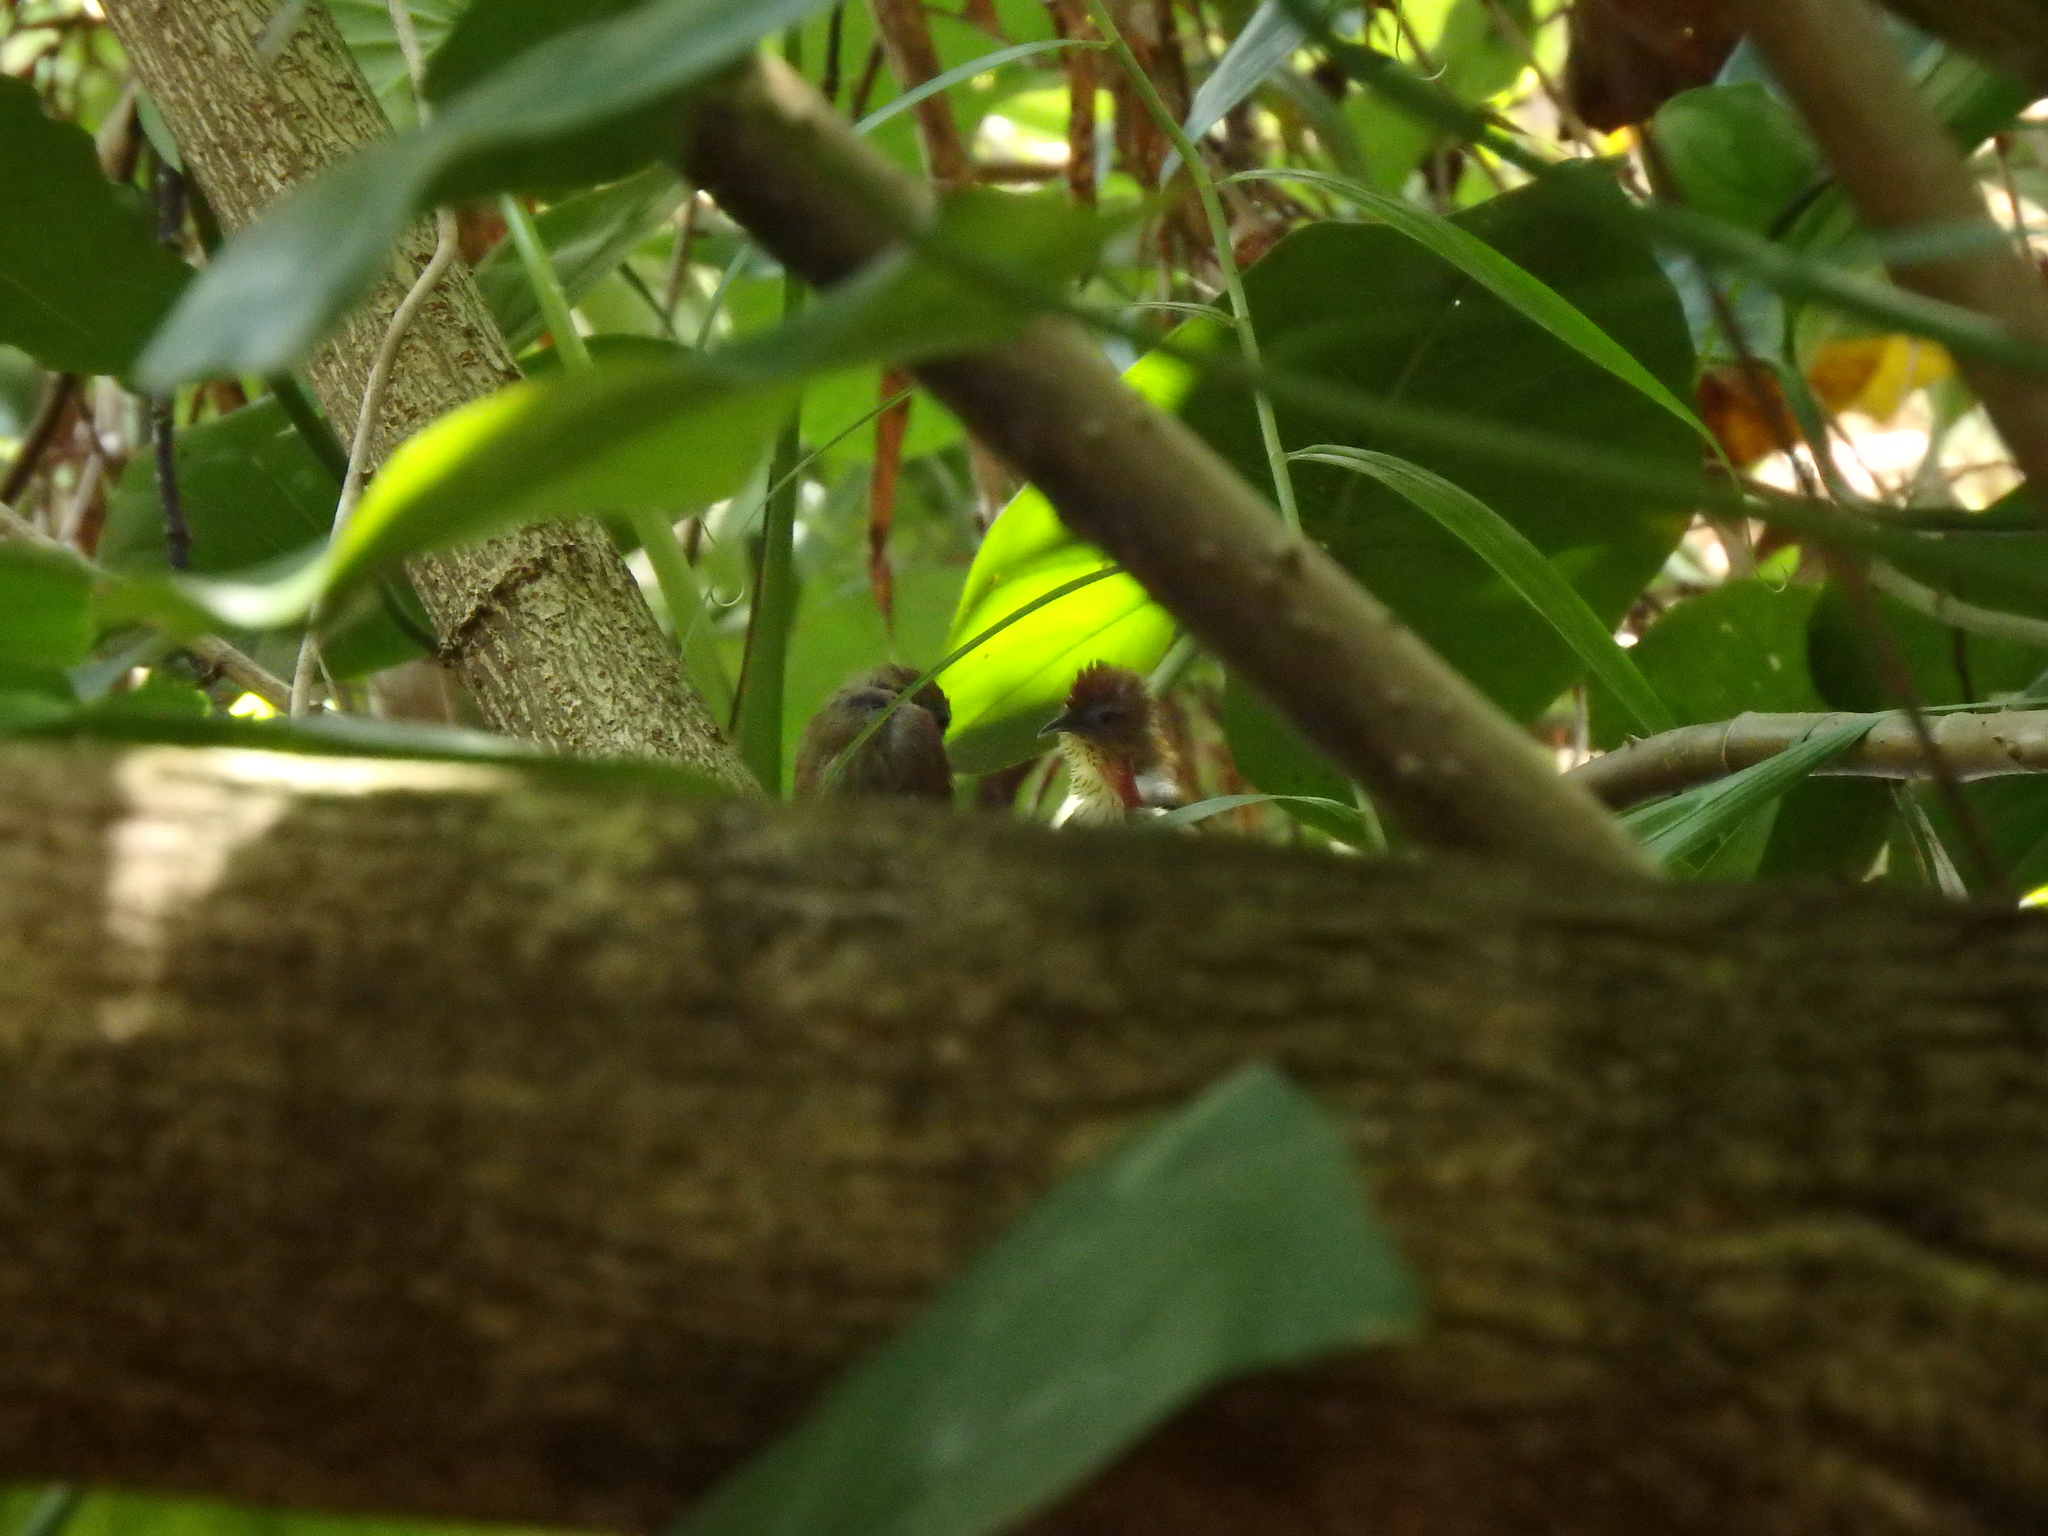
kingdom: Animalia
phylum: Chordata
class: Aves
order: Passeriformes
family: Timaliidae
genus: Macronus
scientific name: Macronus gularis
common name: Striped tit-babbler
